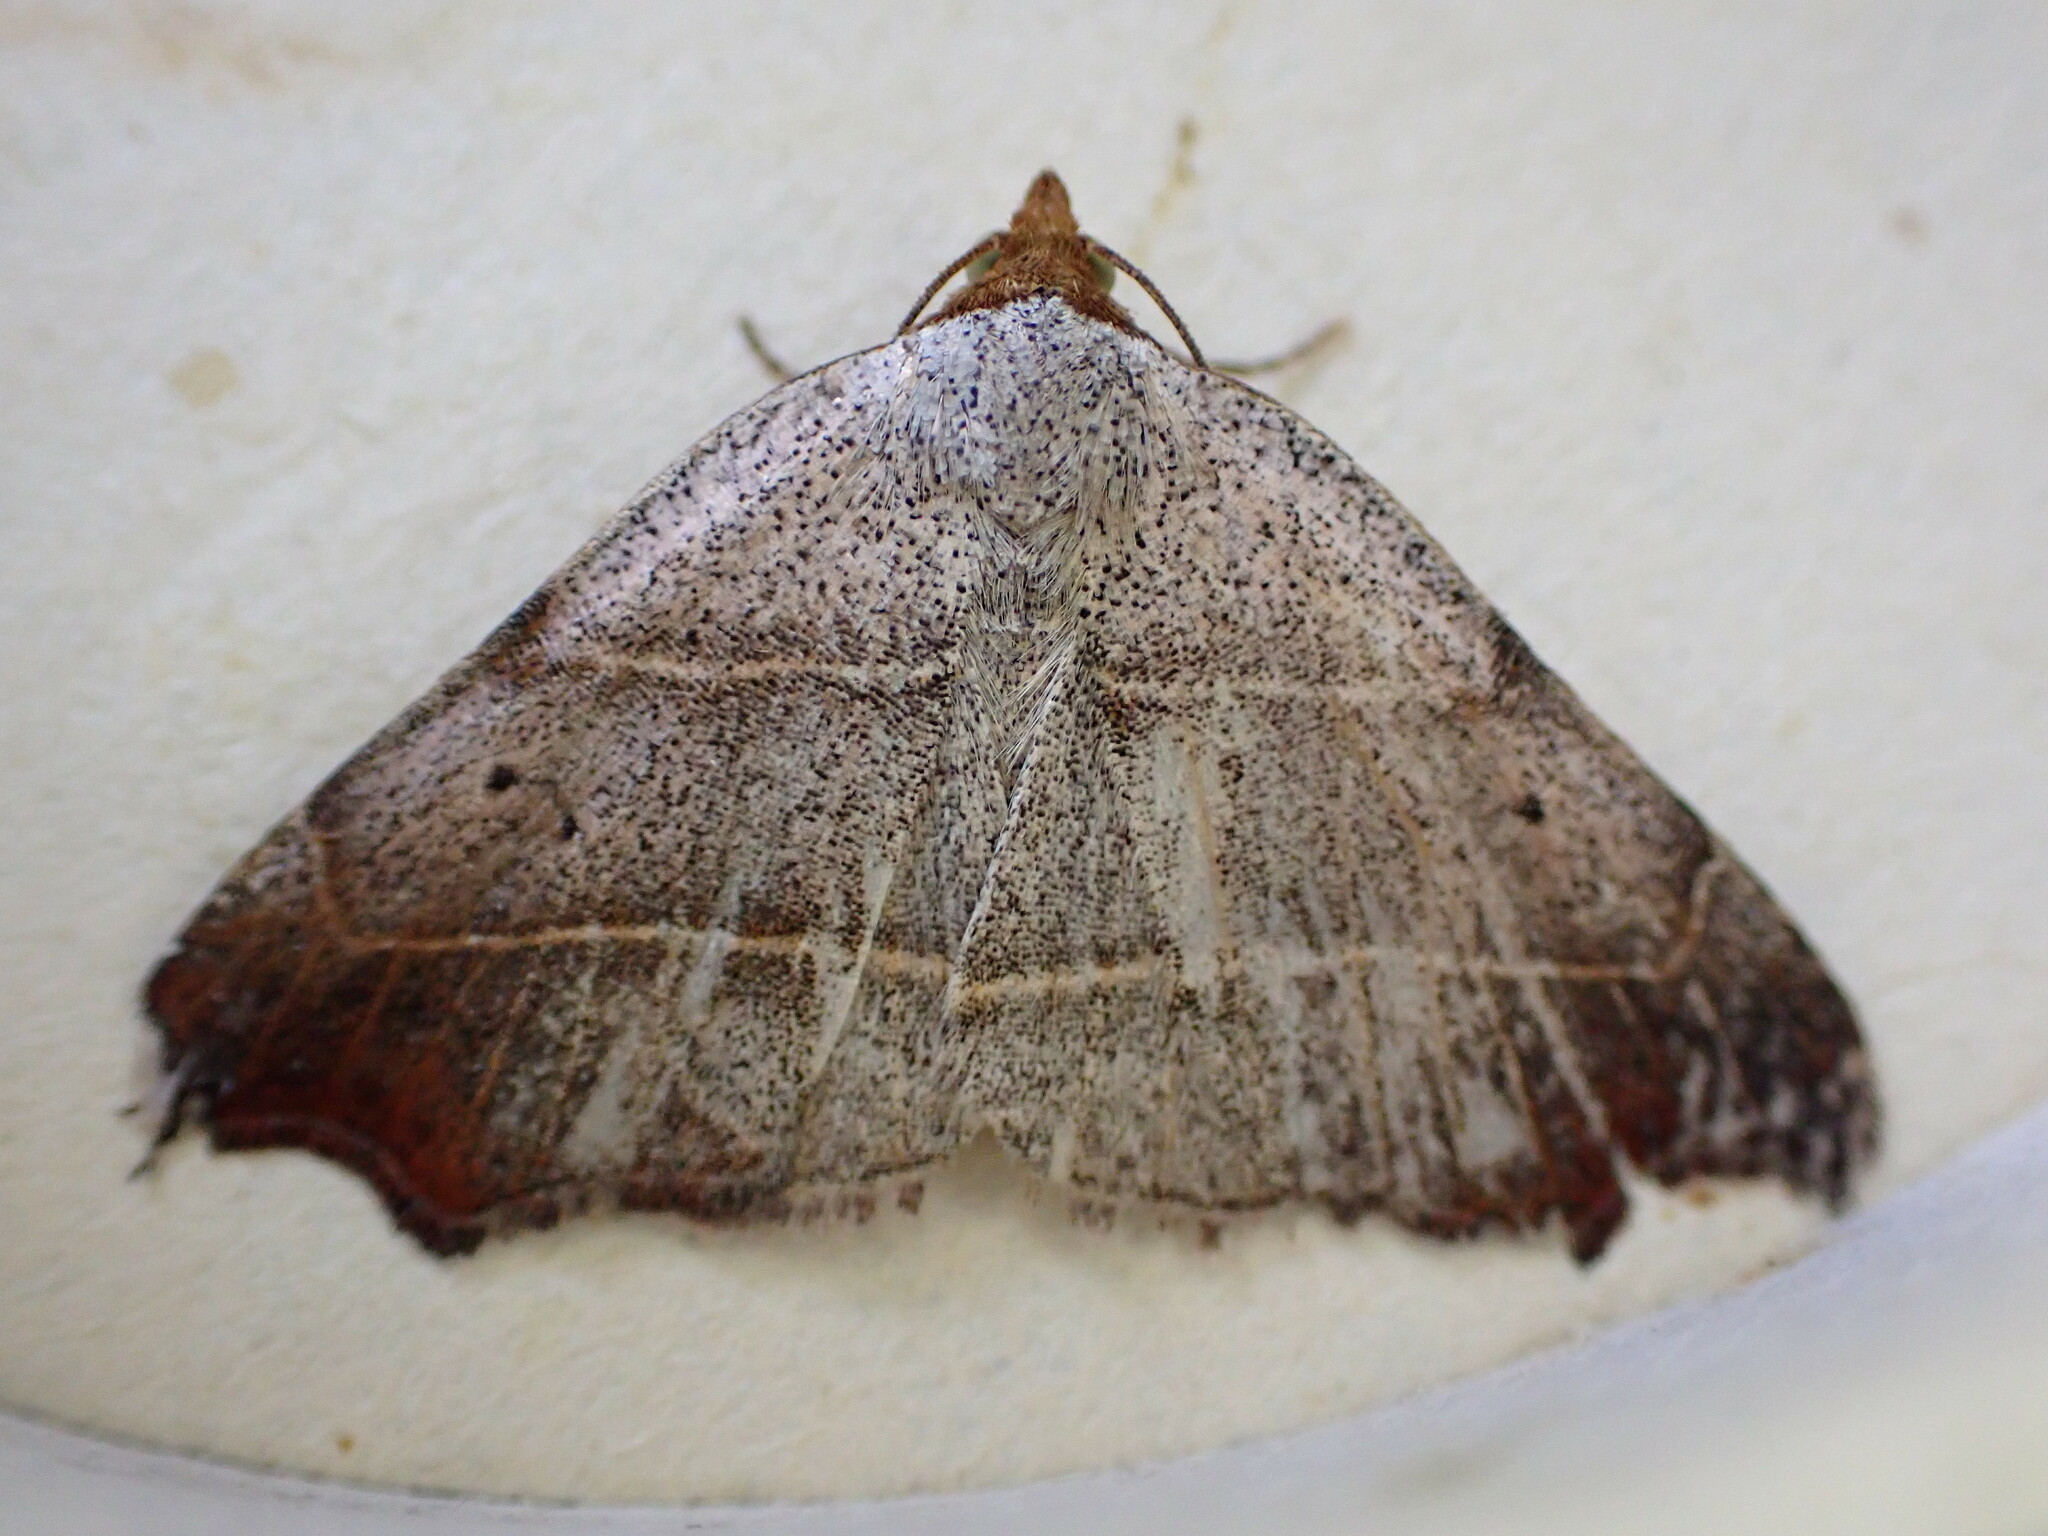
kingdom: Animalia
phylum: Arthropoda
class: Insecta
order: Lepidoptera
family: Erebidae
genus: Laspeyria
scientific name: Laspeyria flexula
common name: Beautiful hook-tip
